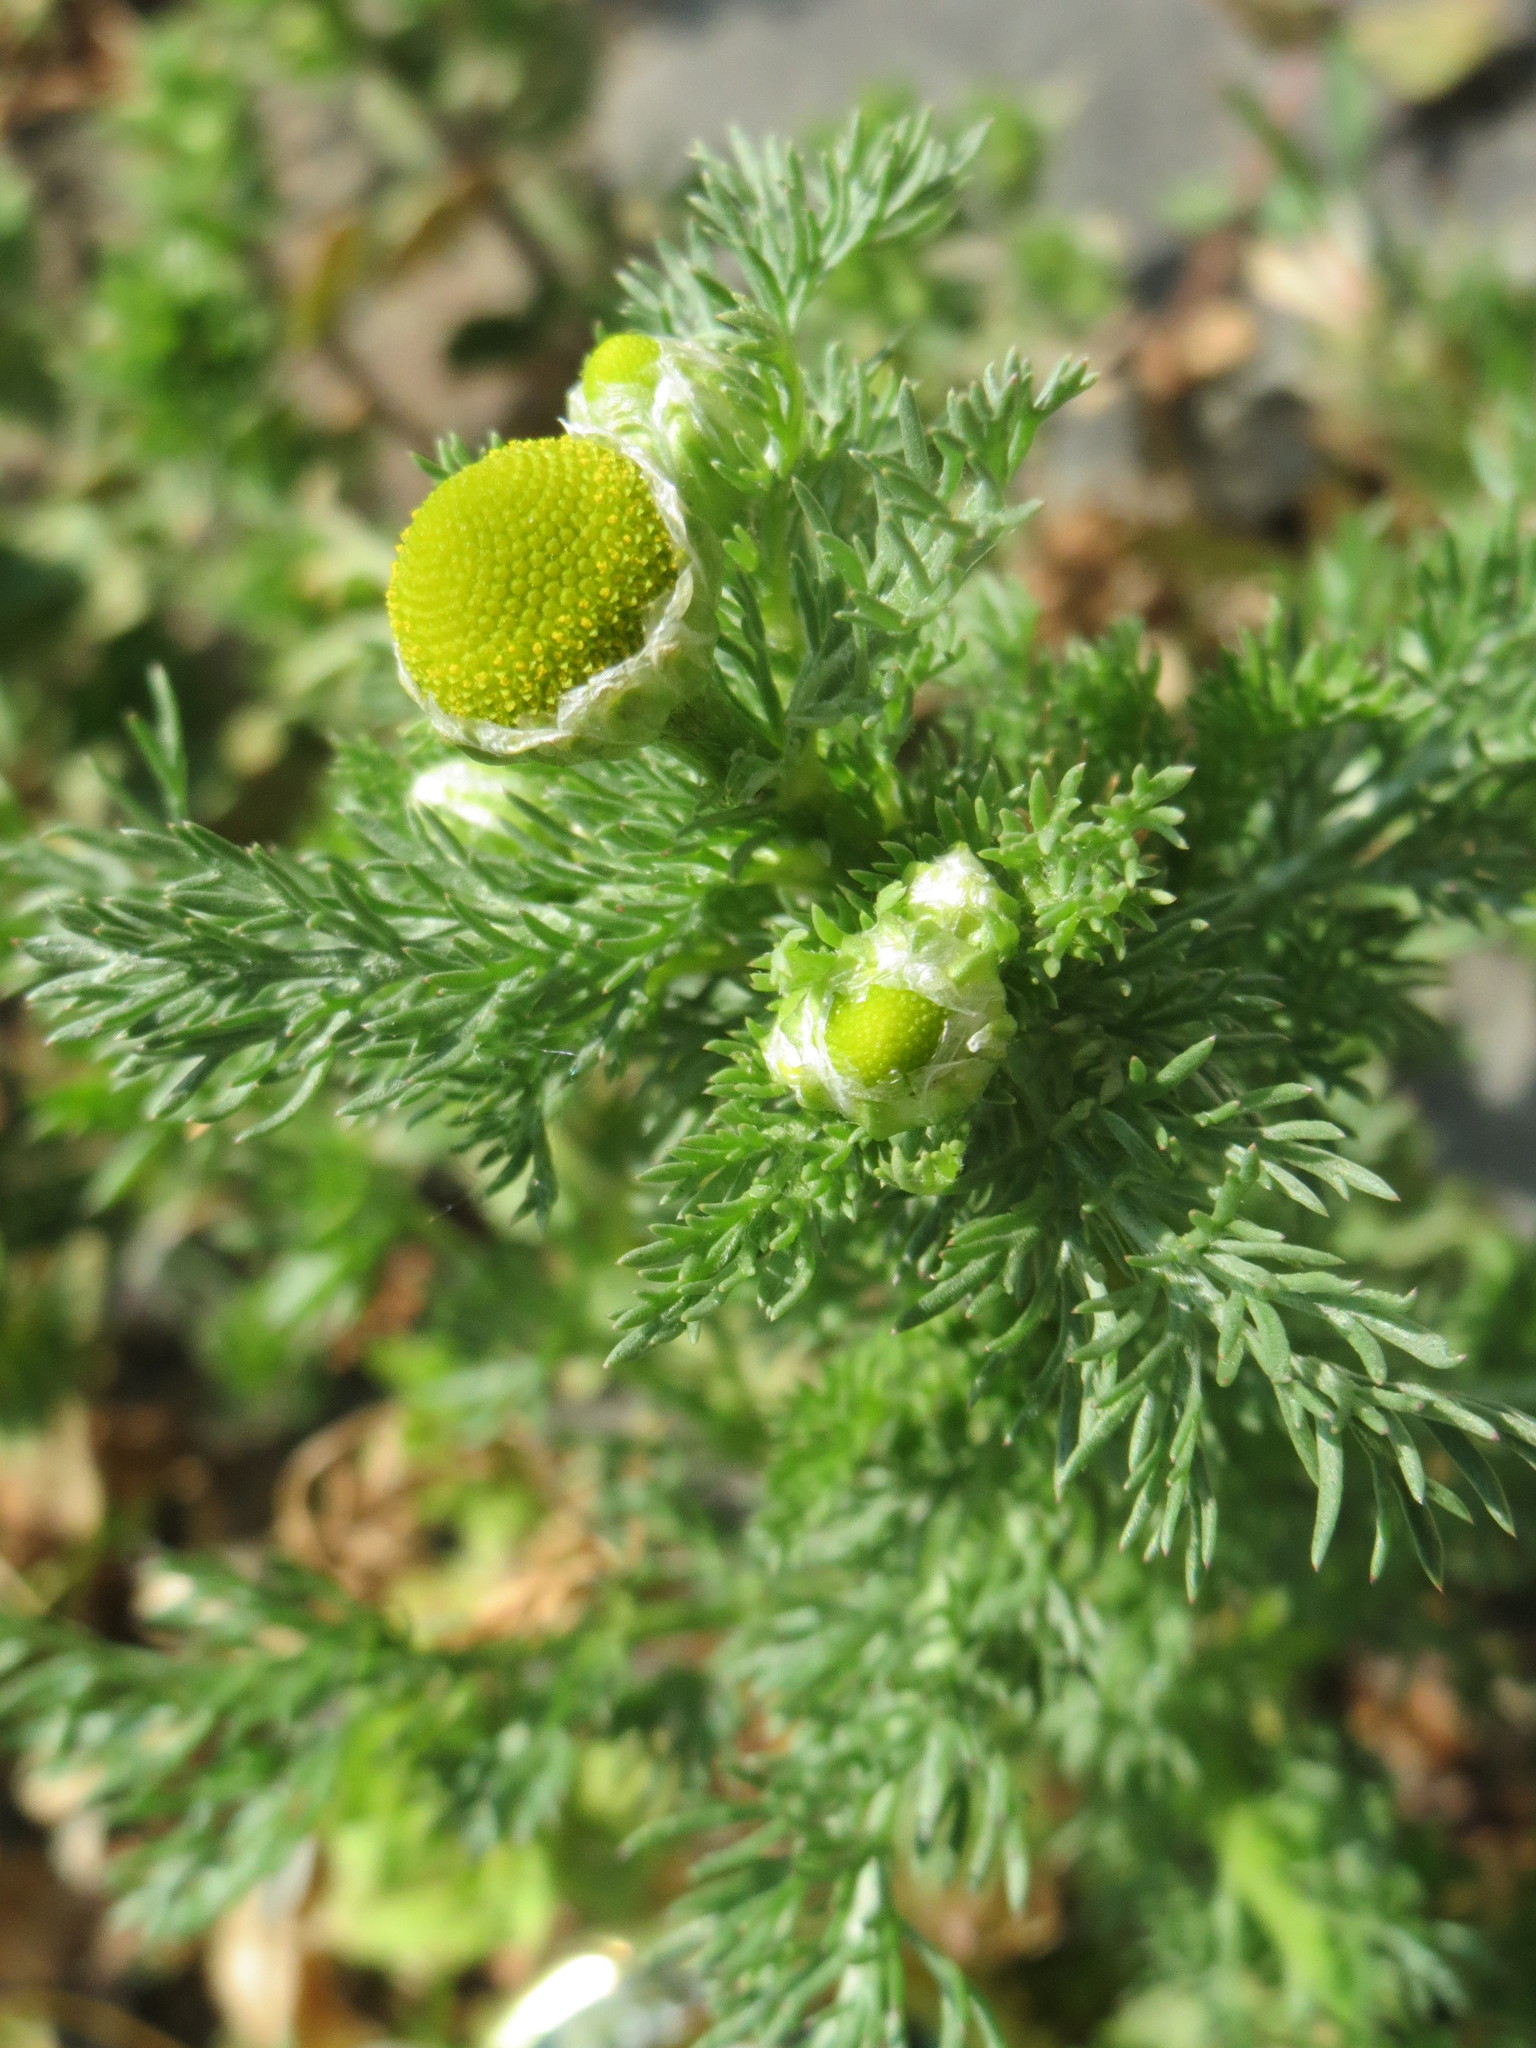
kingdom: Plantae
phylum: Tracheophyta
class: Magnoliopsida
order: Asterales
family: Asteraceae
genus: Matricaria
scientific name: Matricaria discoidea
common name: Disc mayweed
